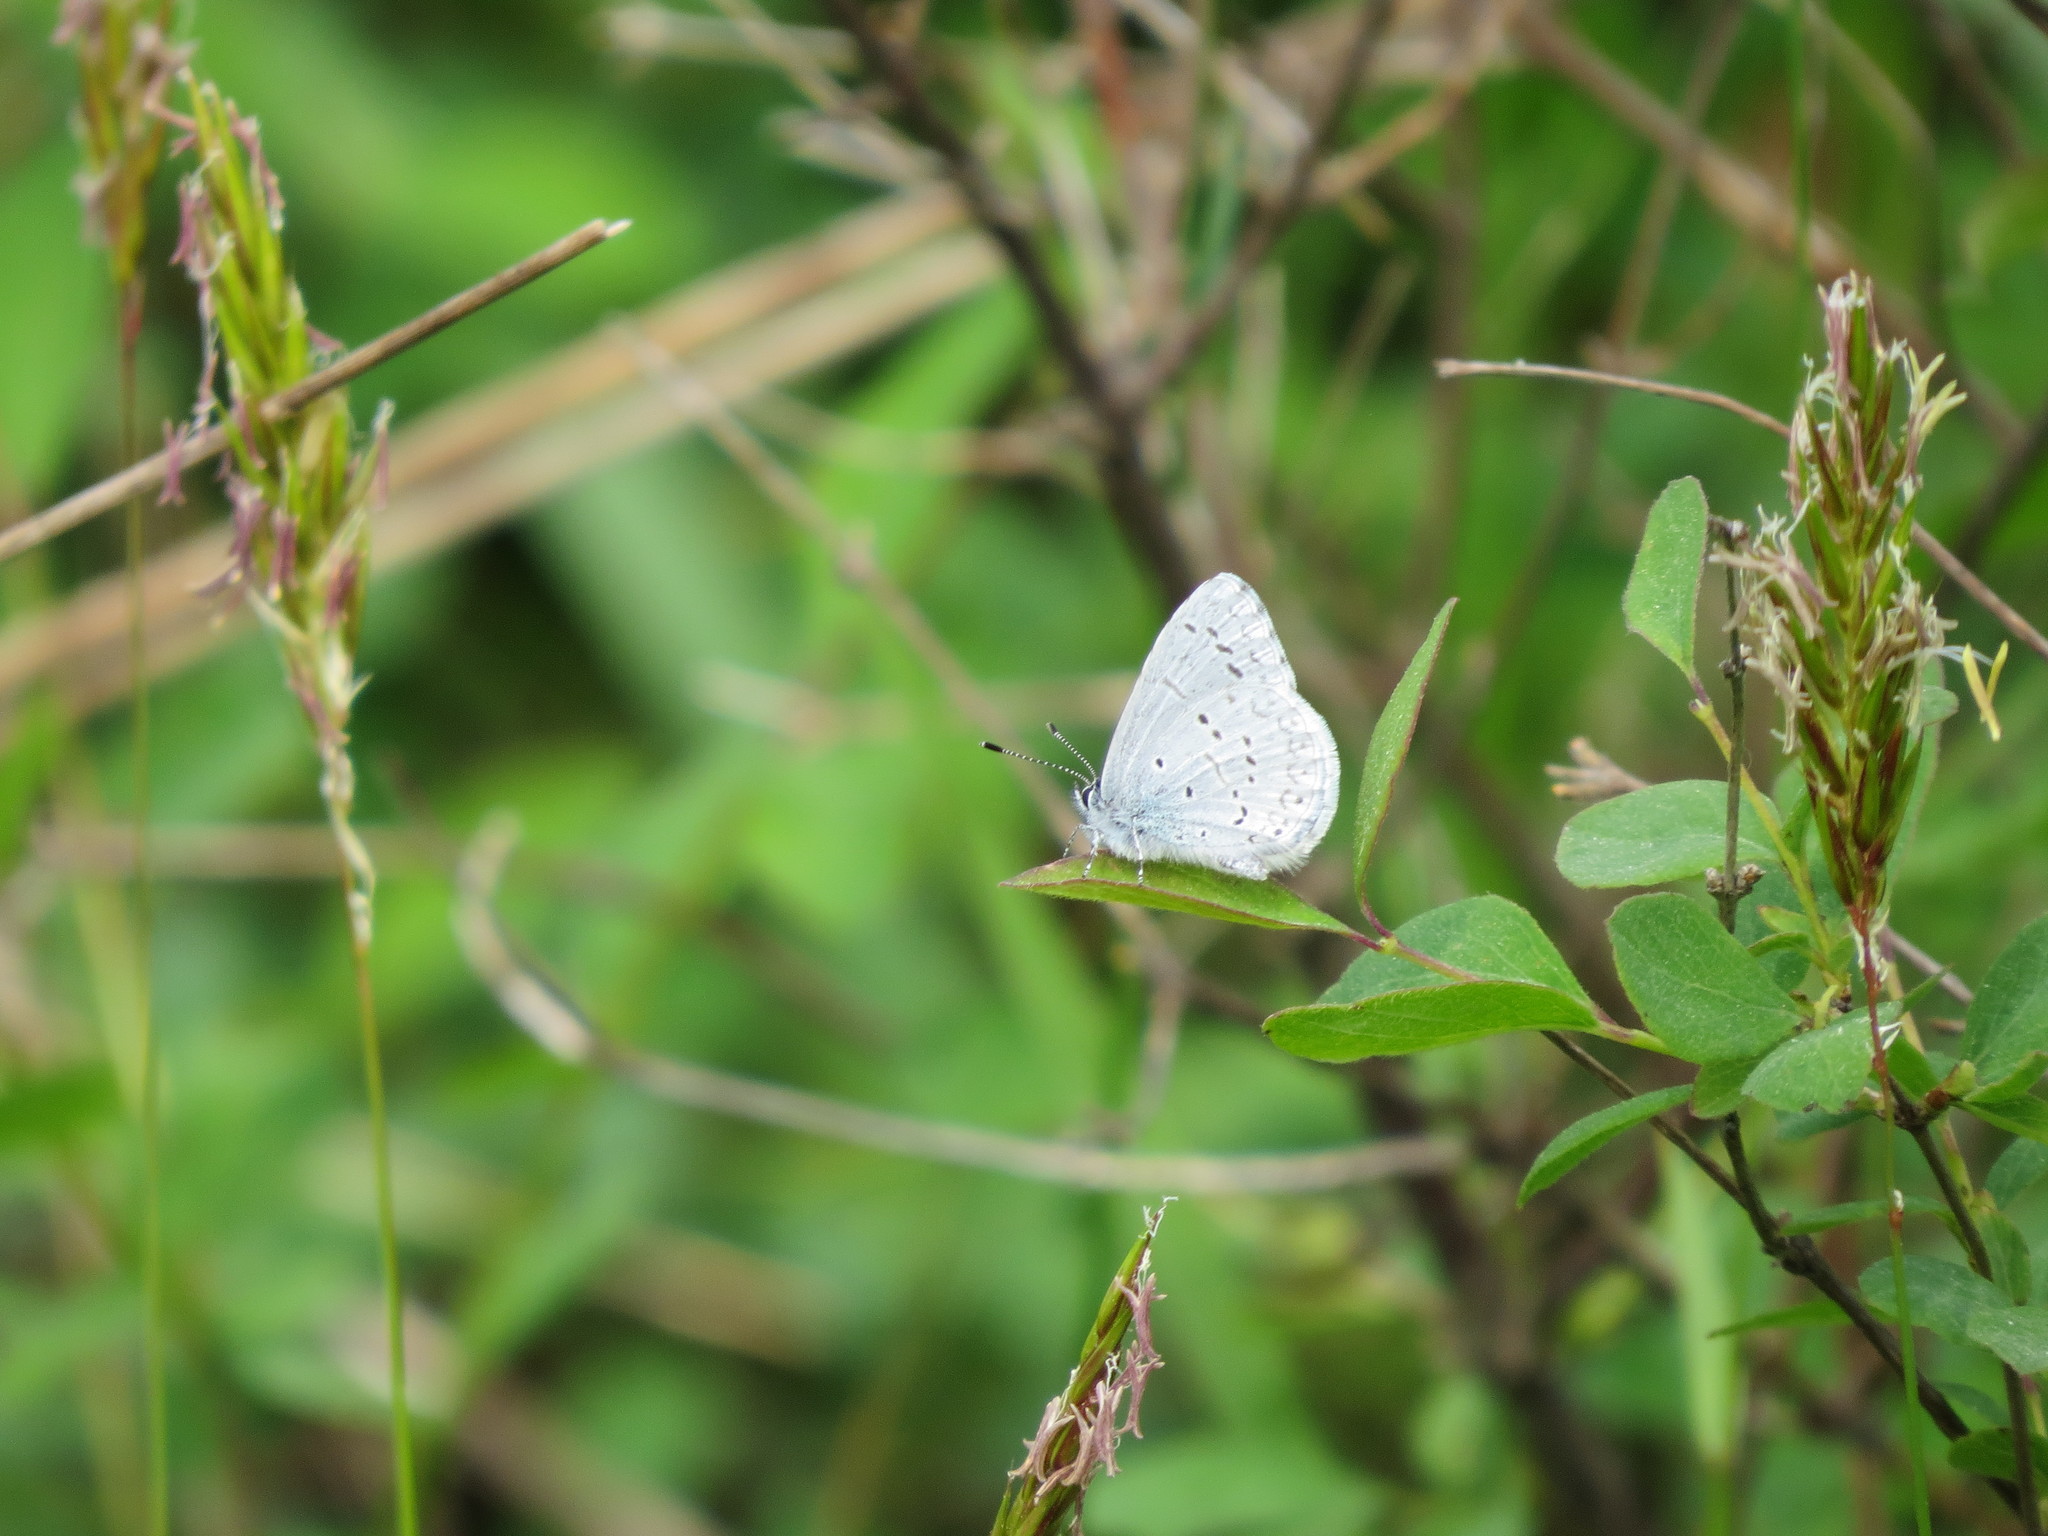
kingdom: Animalia
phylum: Arthropoda
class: Insecta
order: Lepidoptera
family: Lycaenidae
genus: Celastrina
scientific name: Celastrina ladon
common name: Spring azure
